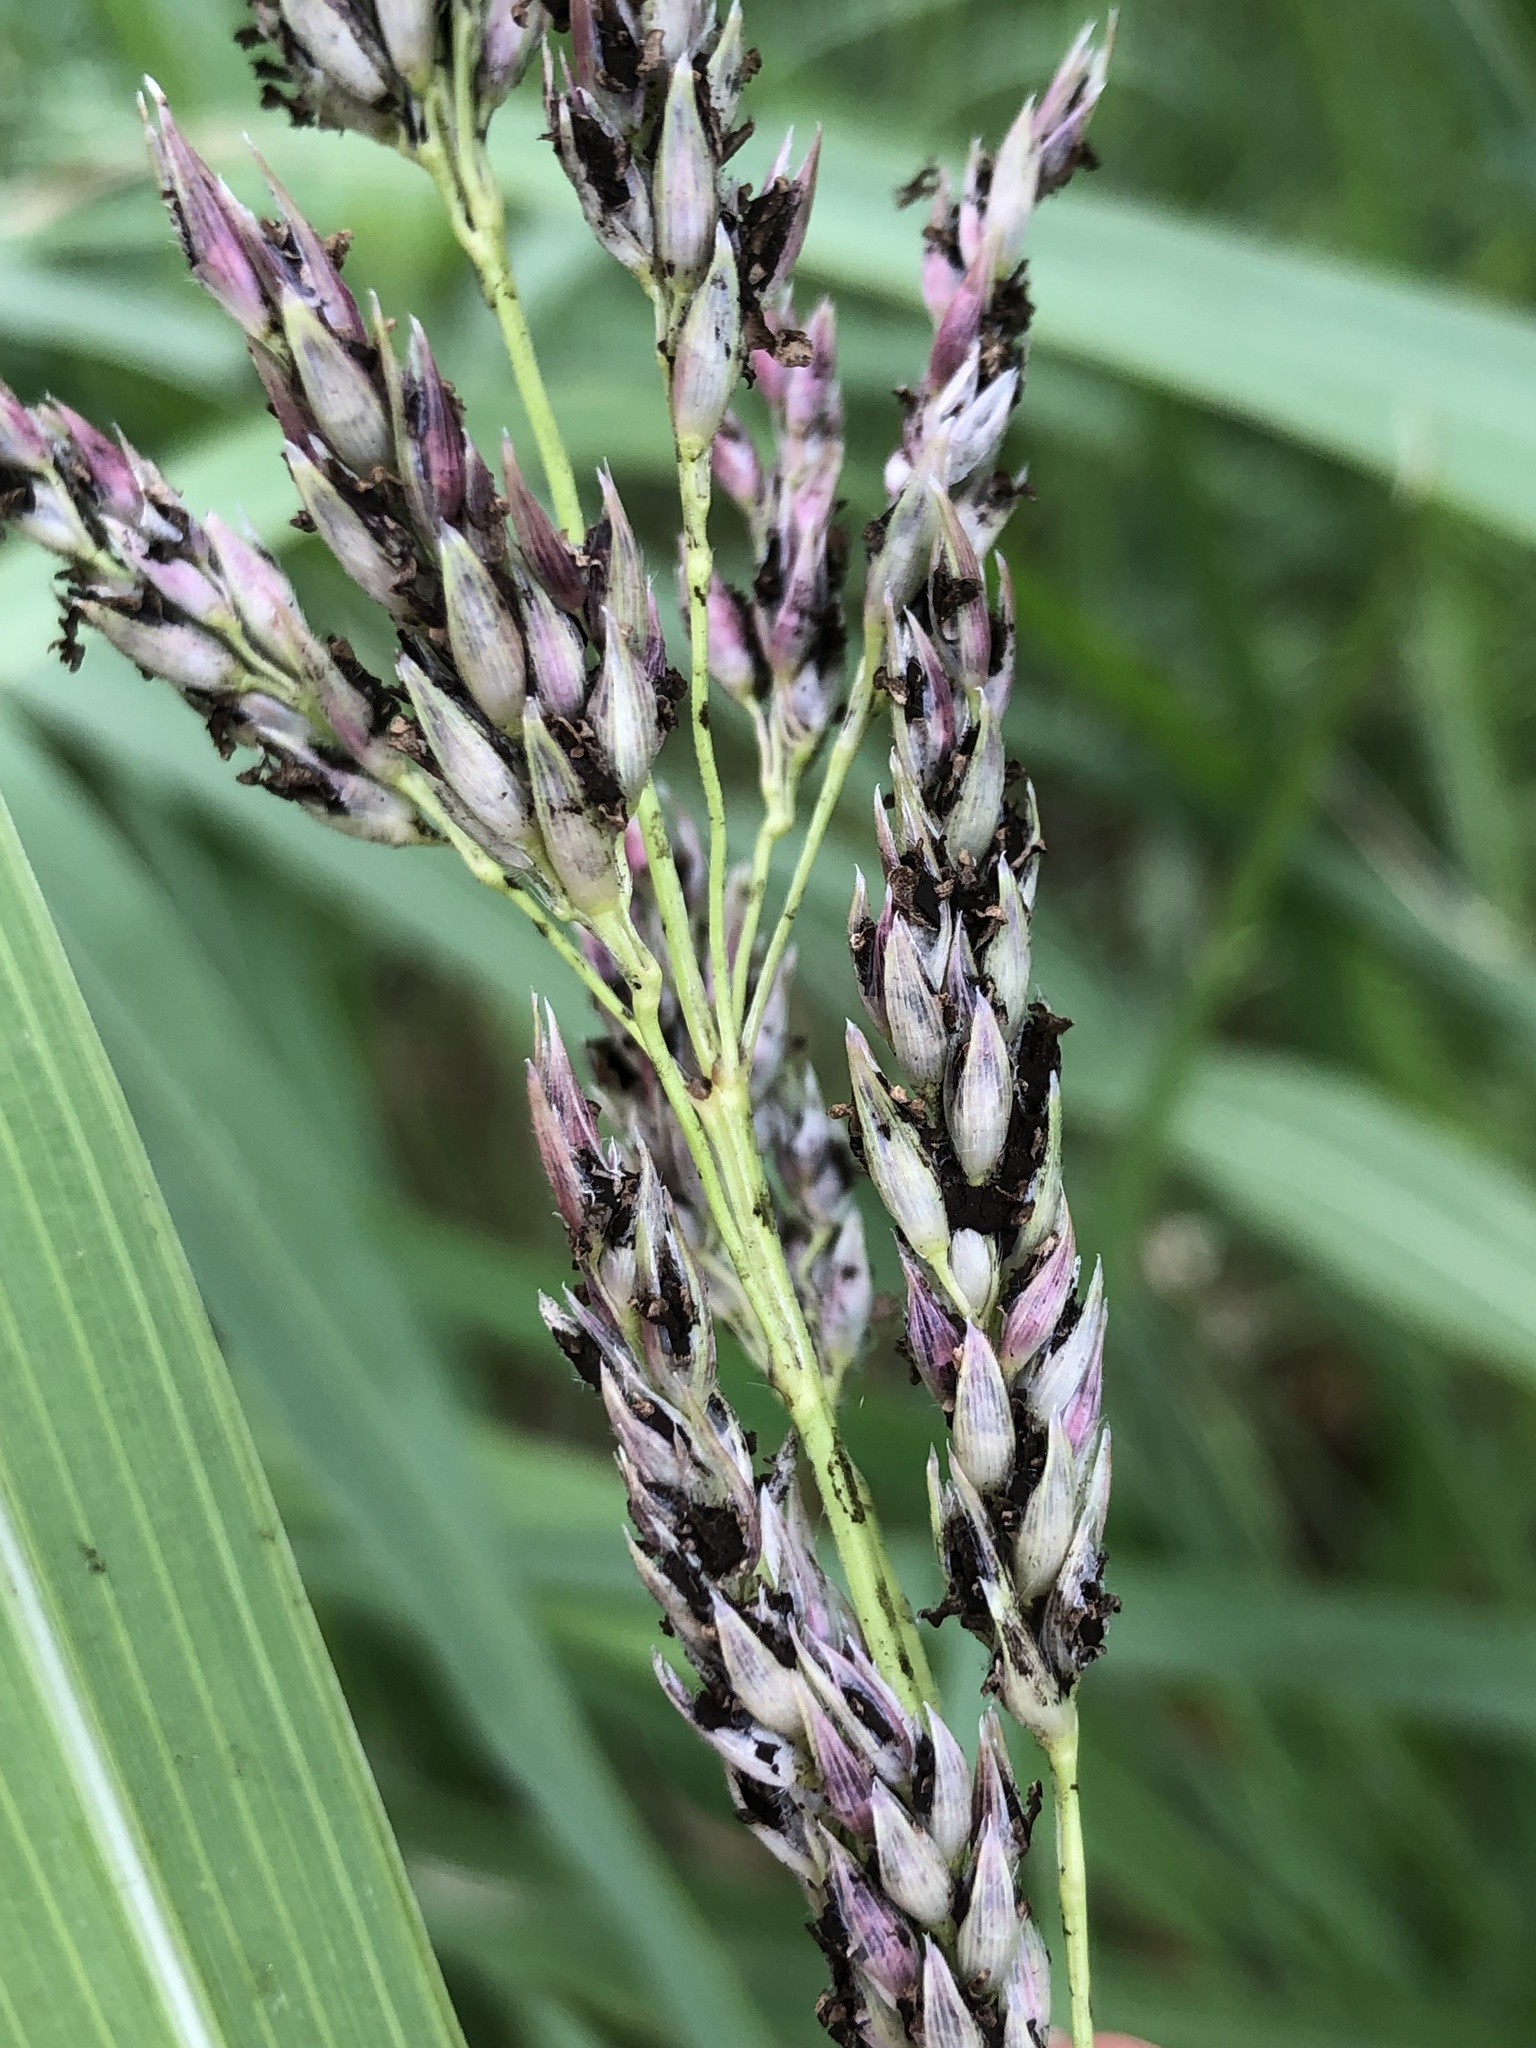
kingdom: Plantae
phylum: Tracheophyta
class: Liliopsida
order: Poales
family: Poaceae
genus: Sorghum
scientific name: Sorghum halepense
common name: Johnson-grass
